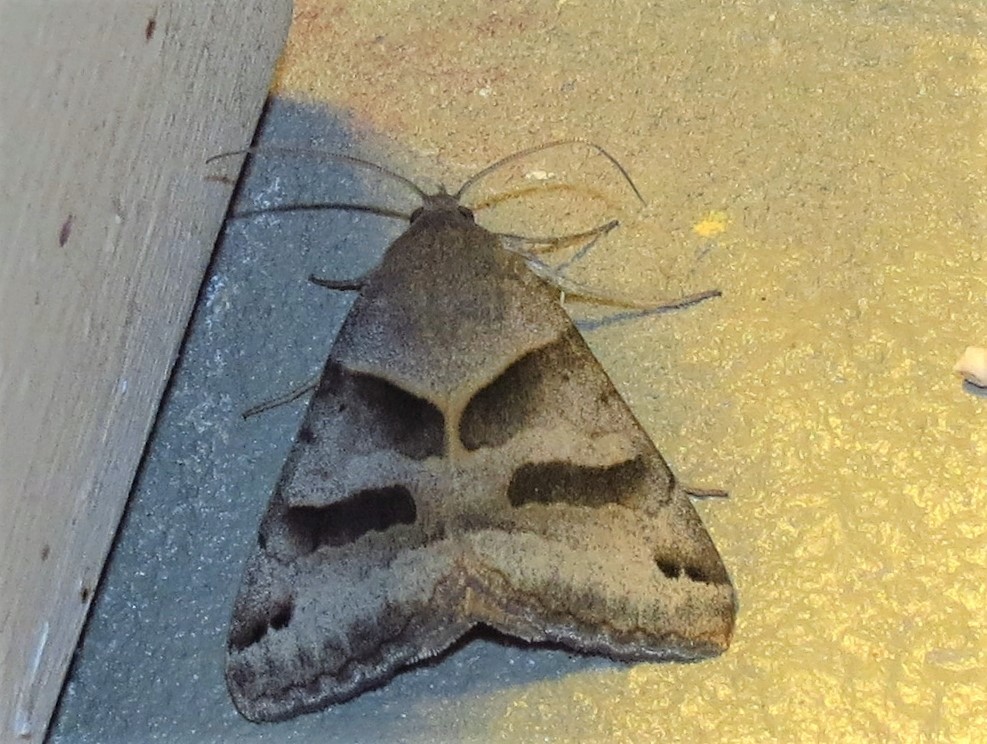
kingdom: Animalia
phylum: Arthropoda
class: Insecta
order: Lepidoptera
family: Erebidae
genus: Caenurgina
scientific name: Caenurgina erechtea
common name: Forage looper moth
